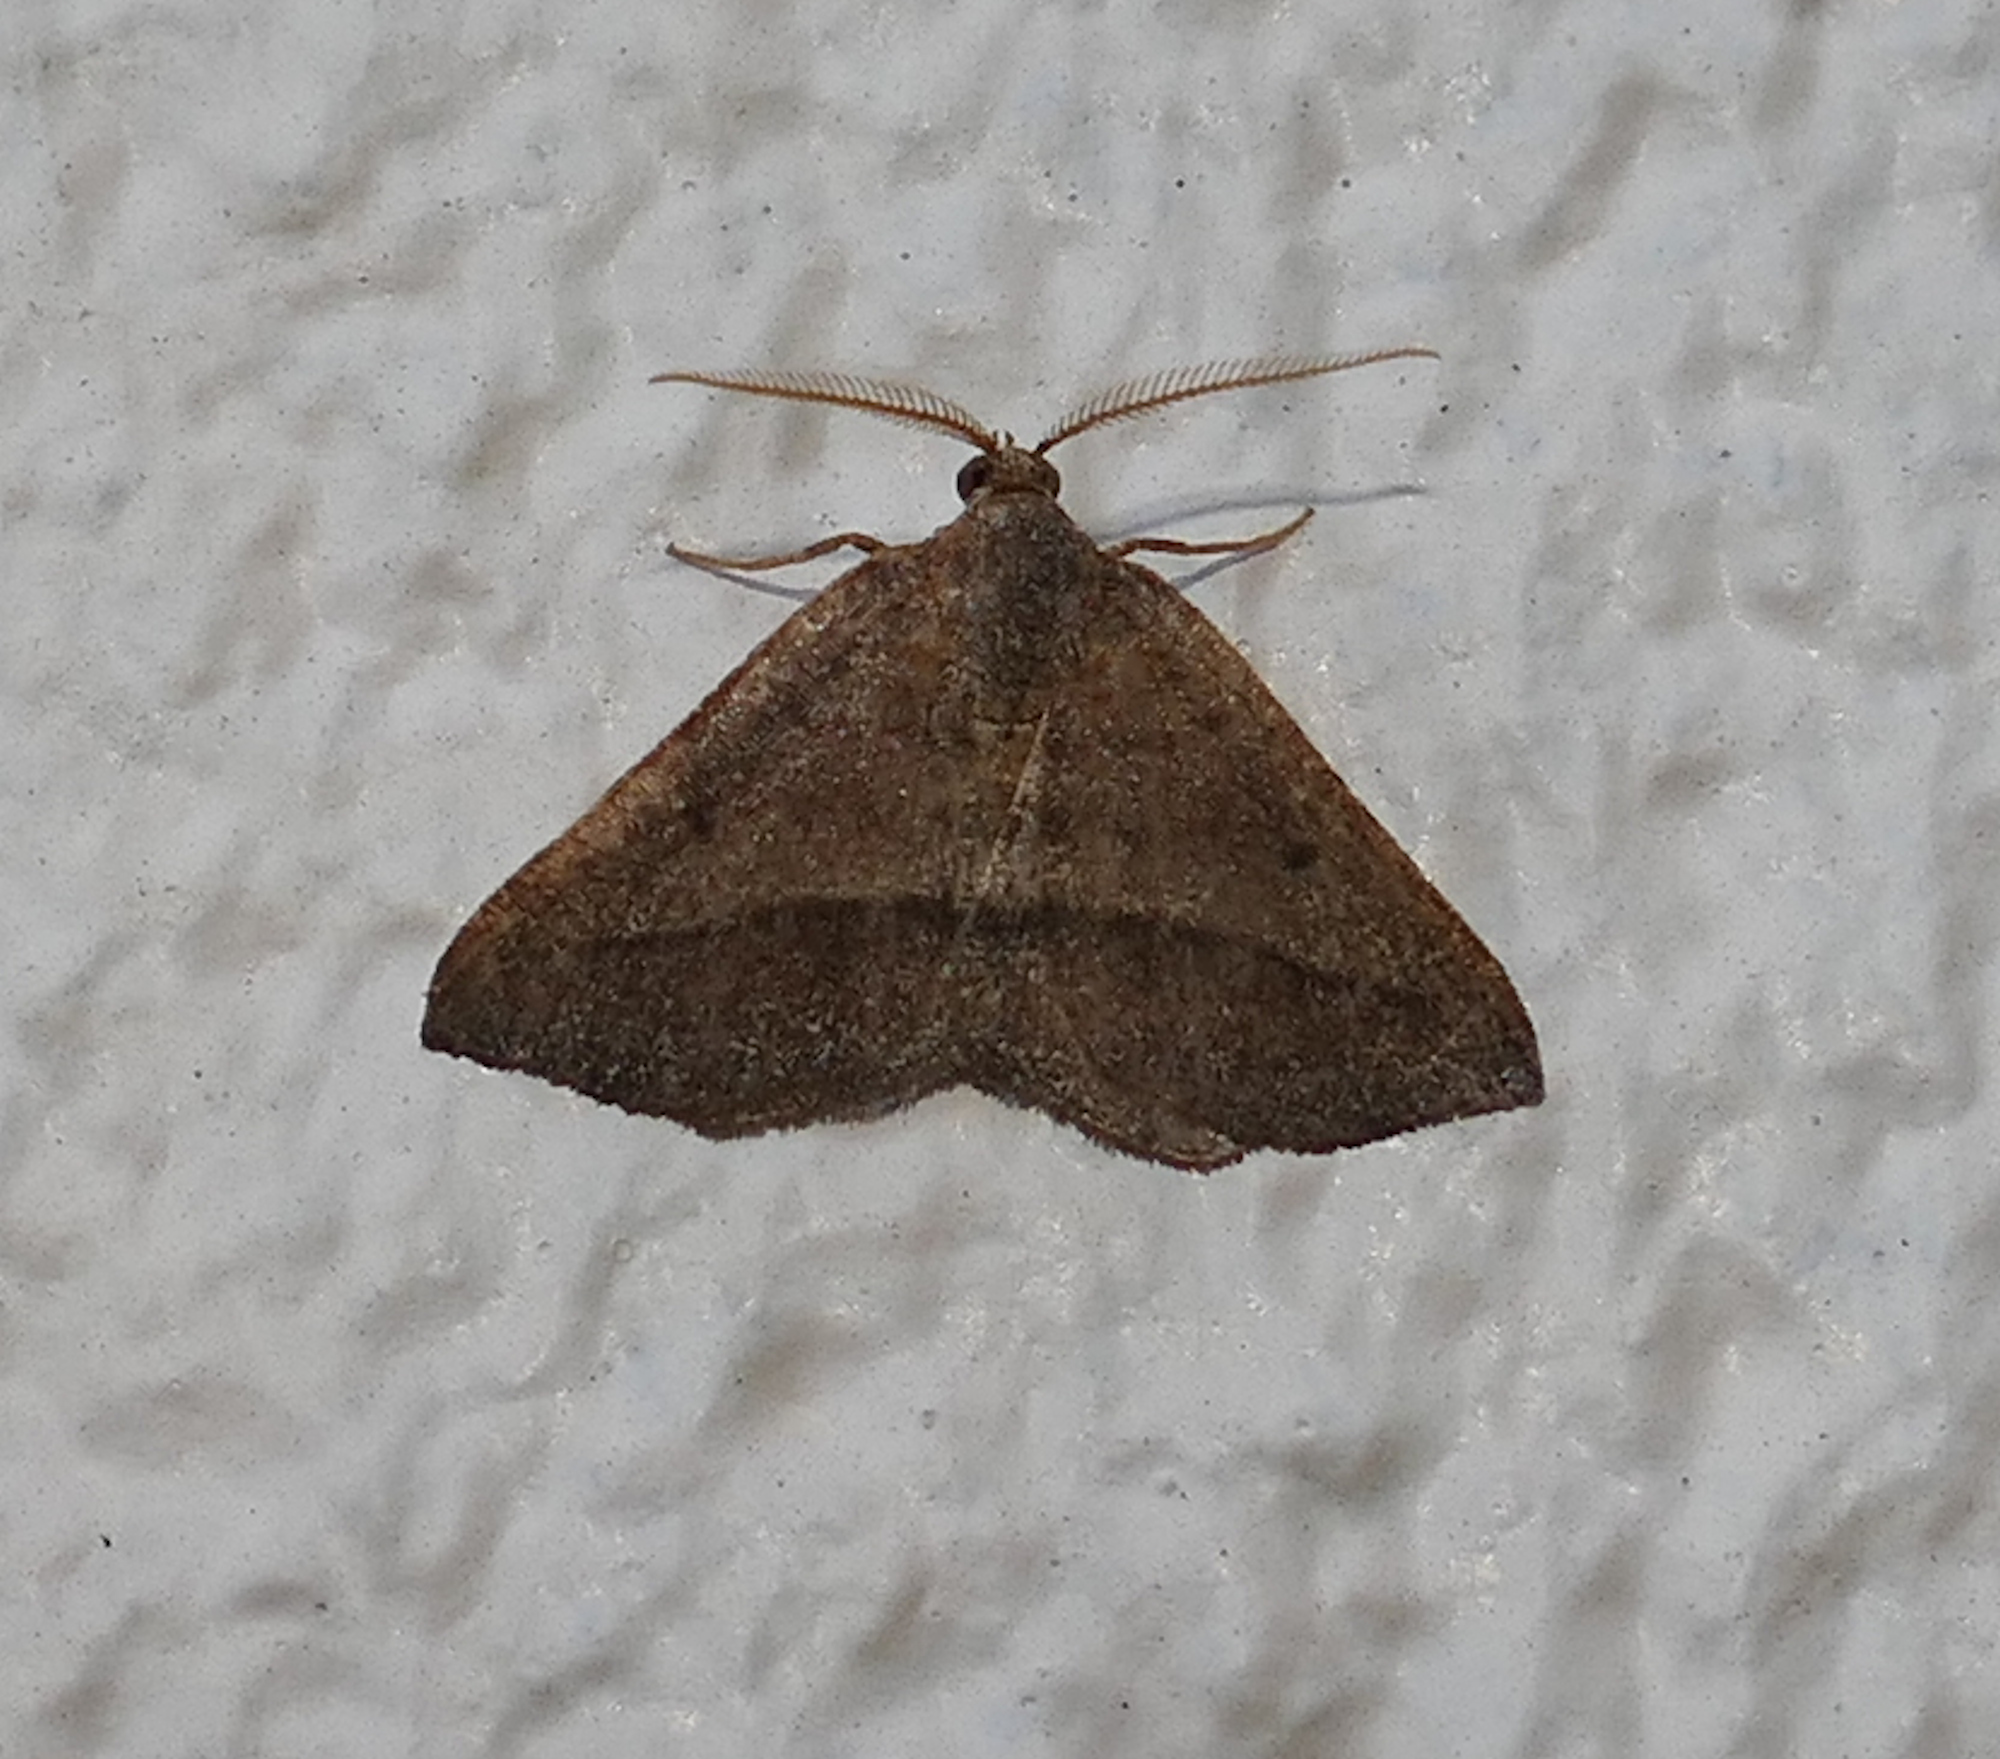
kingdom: Animalia
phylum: Arthropoda
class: Insecta
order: Lepidoptera
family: Geometridae
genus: Macaria
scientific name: Macaria varadaria
